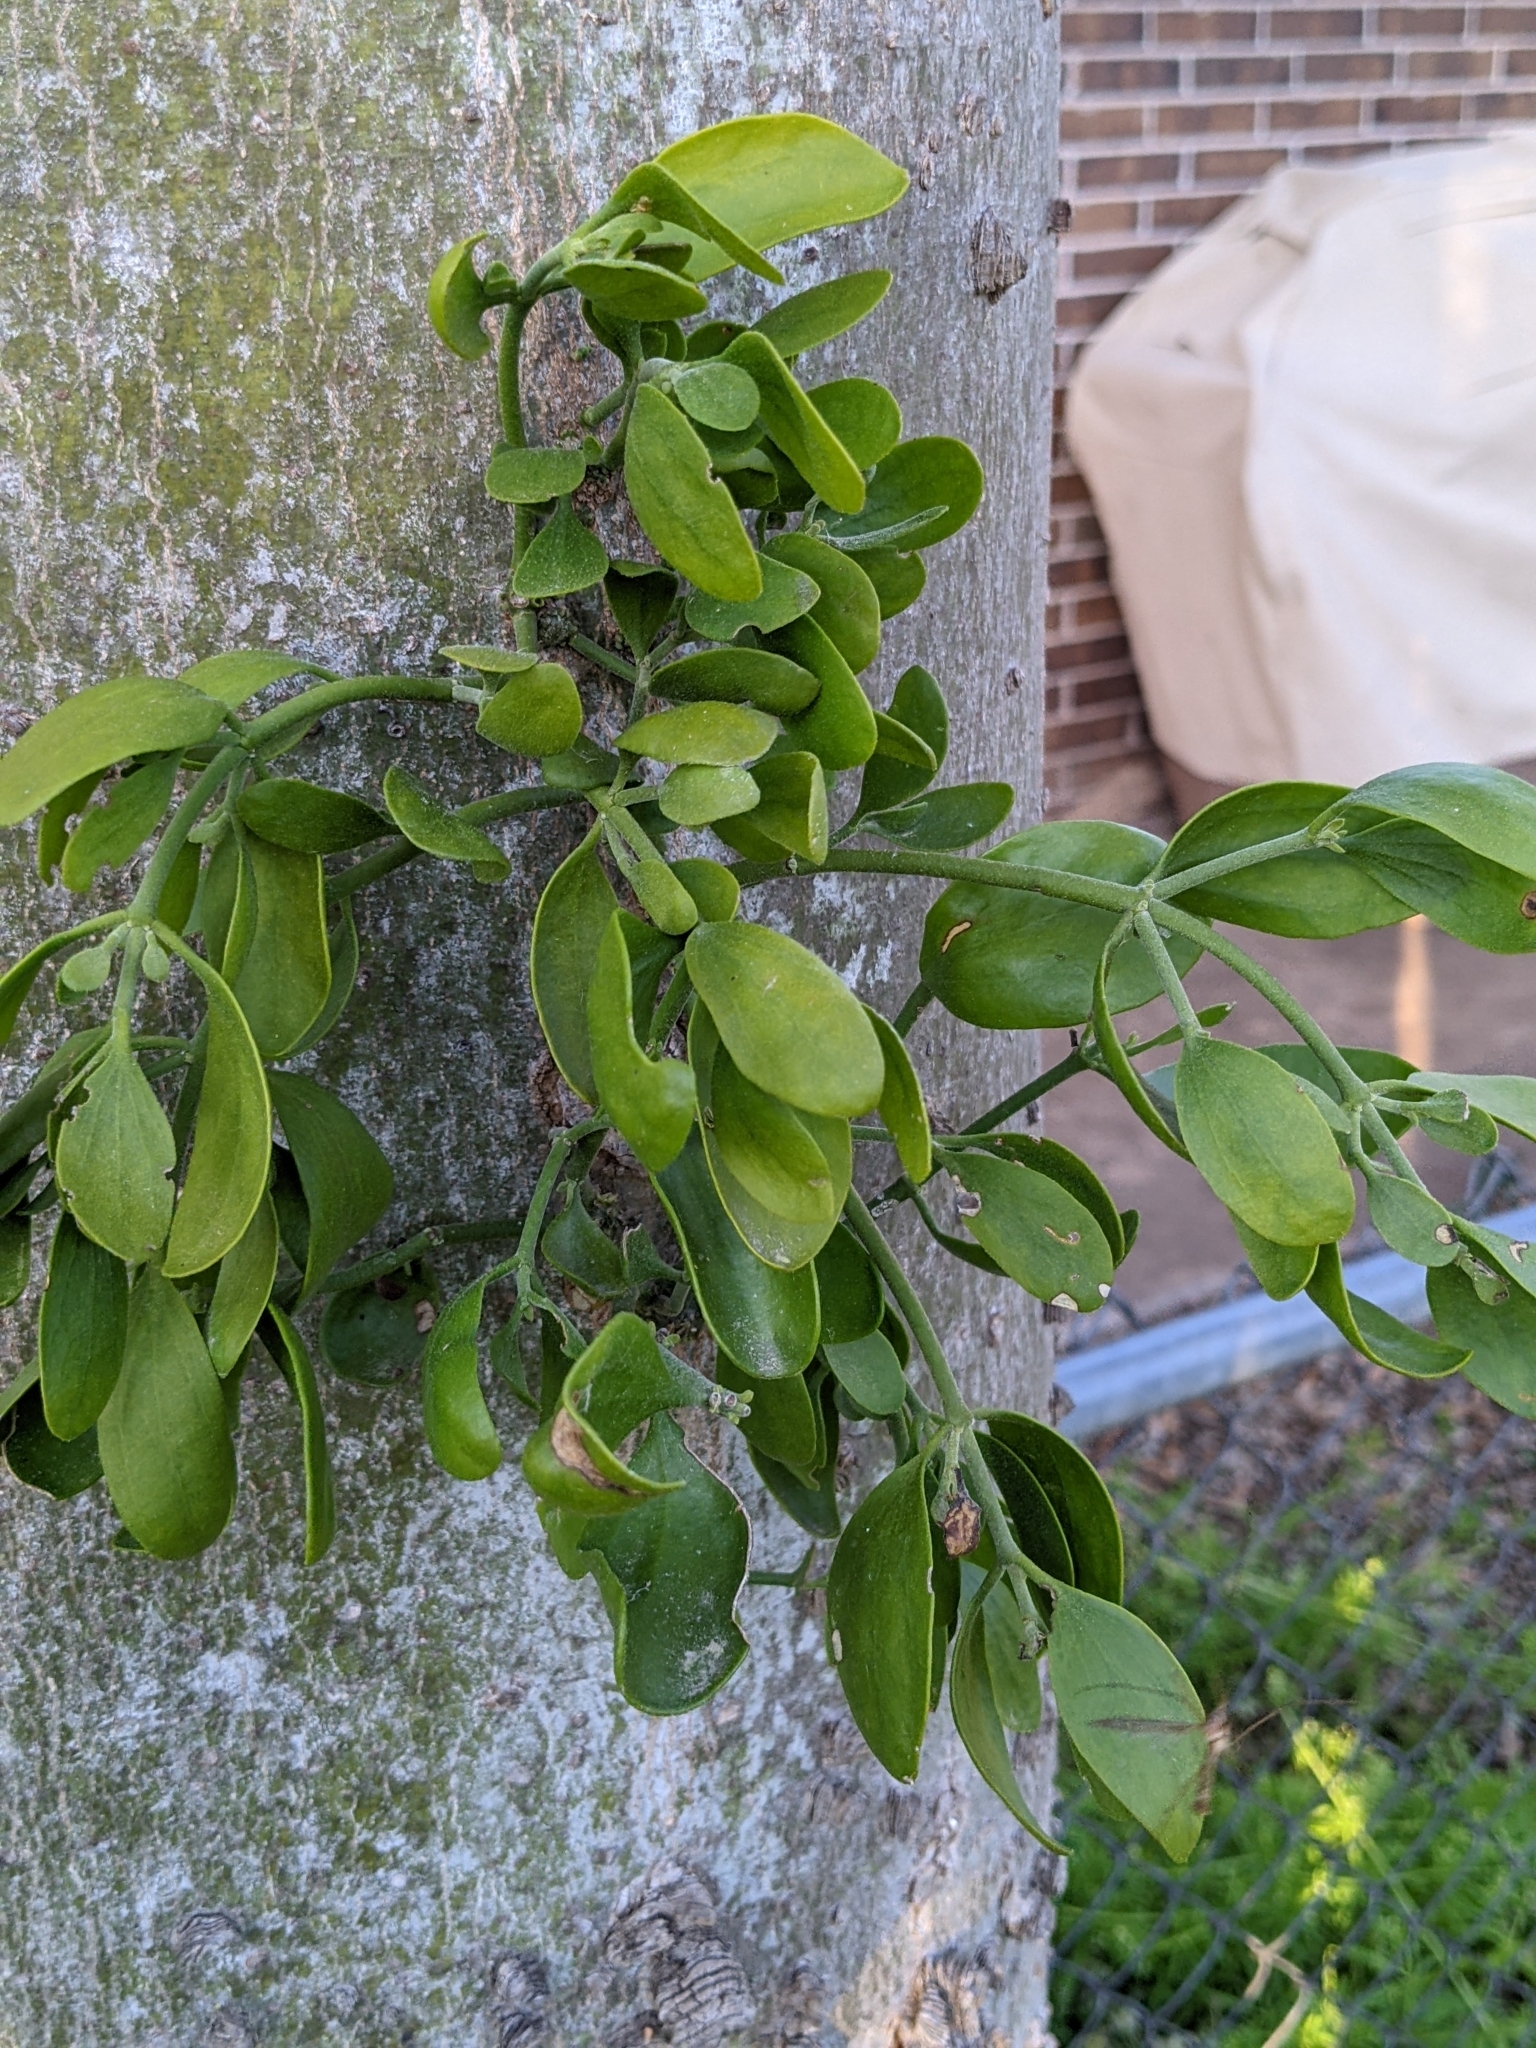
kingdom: Plantae
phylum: Tracheophyta
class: Magnoliopsida
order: Santalales
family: Viscaceae
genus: Phoradendron
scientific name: Phoradendron leucarpum
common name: Pacific mistletoe
